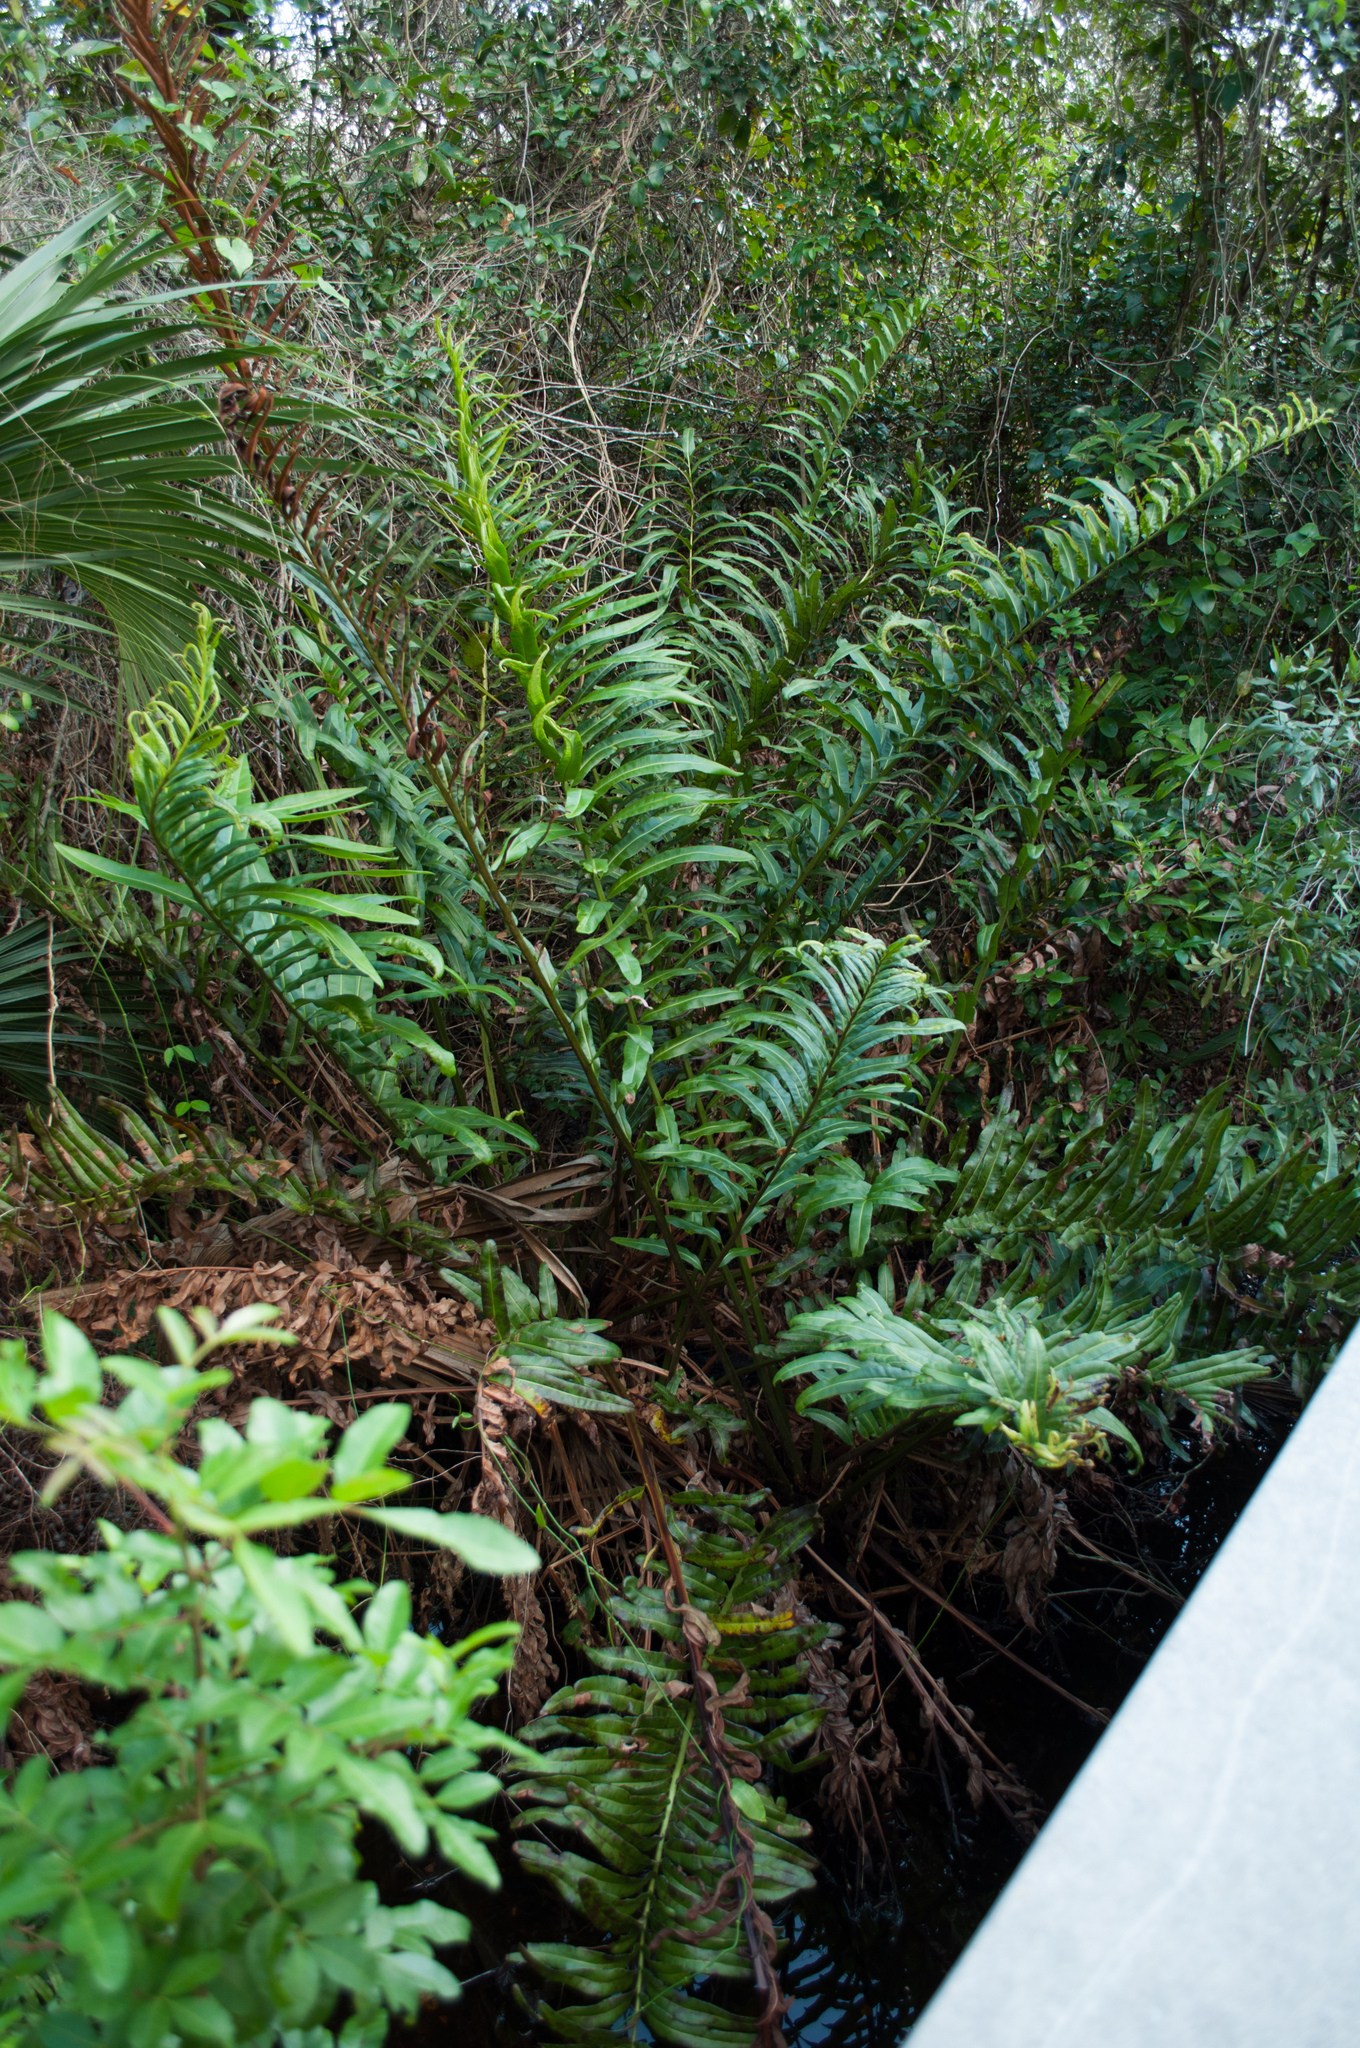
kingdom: Plantae
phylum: Tracheophyta
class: Polypodiopsida
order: Polypodiales
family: Pteridaceae
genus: Acrostichum
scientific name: Acrostichum danaeifolium
